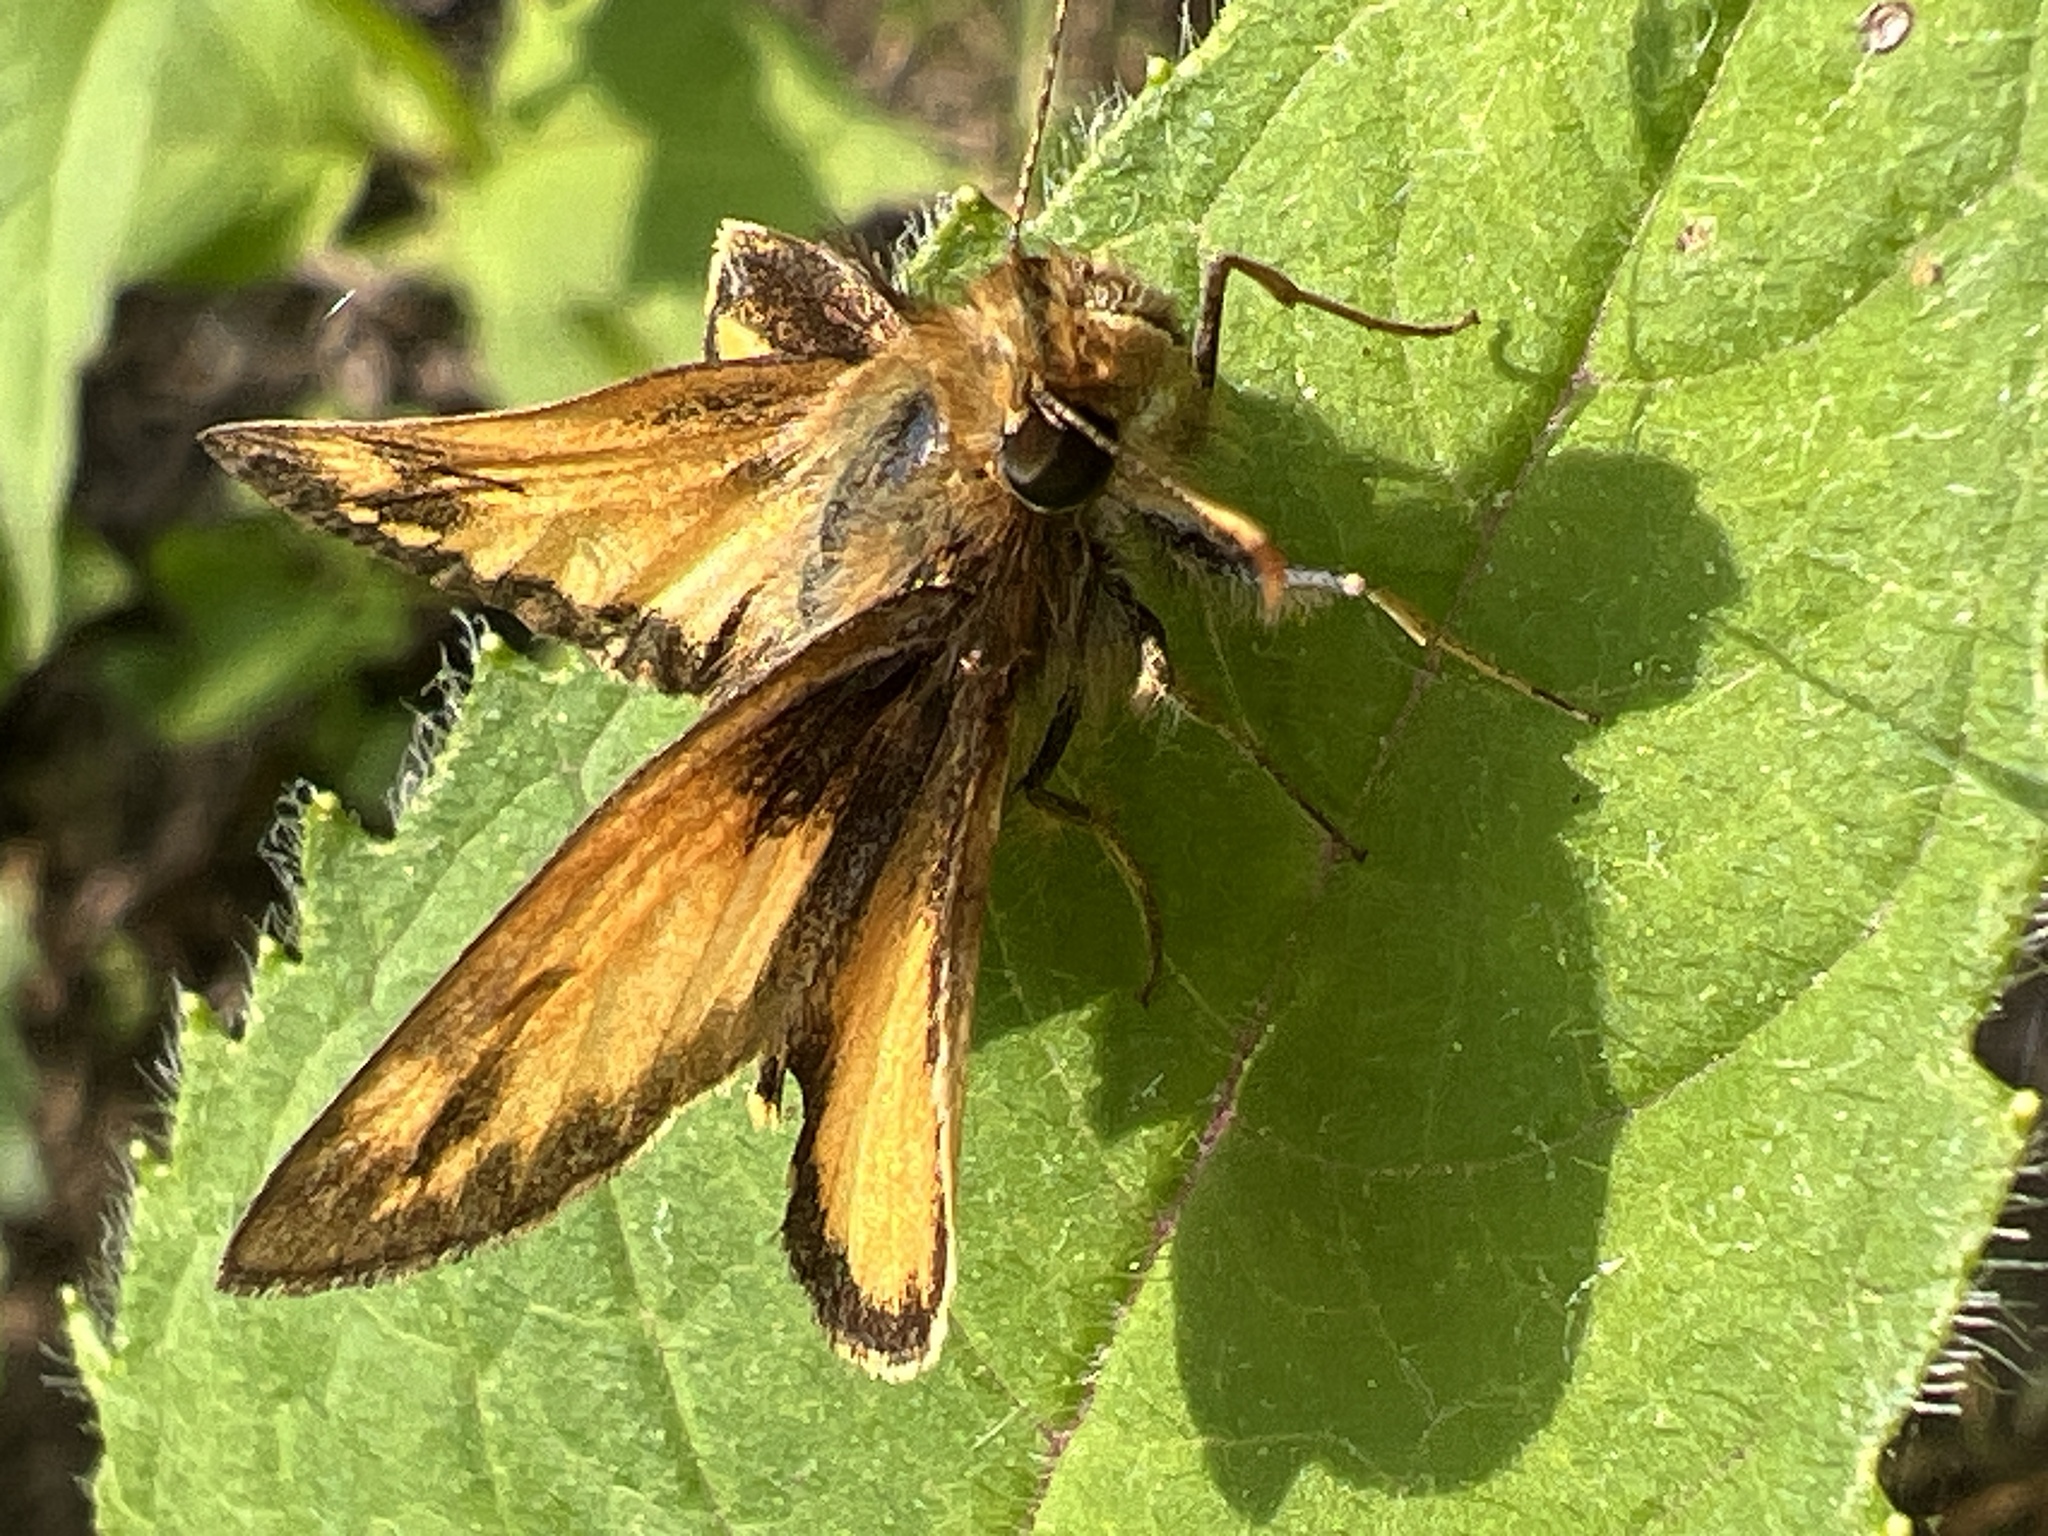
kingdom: Animalia
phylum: Arthropoda
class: Insecta
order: Lepidoptera
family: Hesperiidae
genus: Lon
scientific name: Lon zabulon
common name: Zabulon skipper
